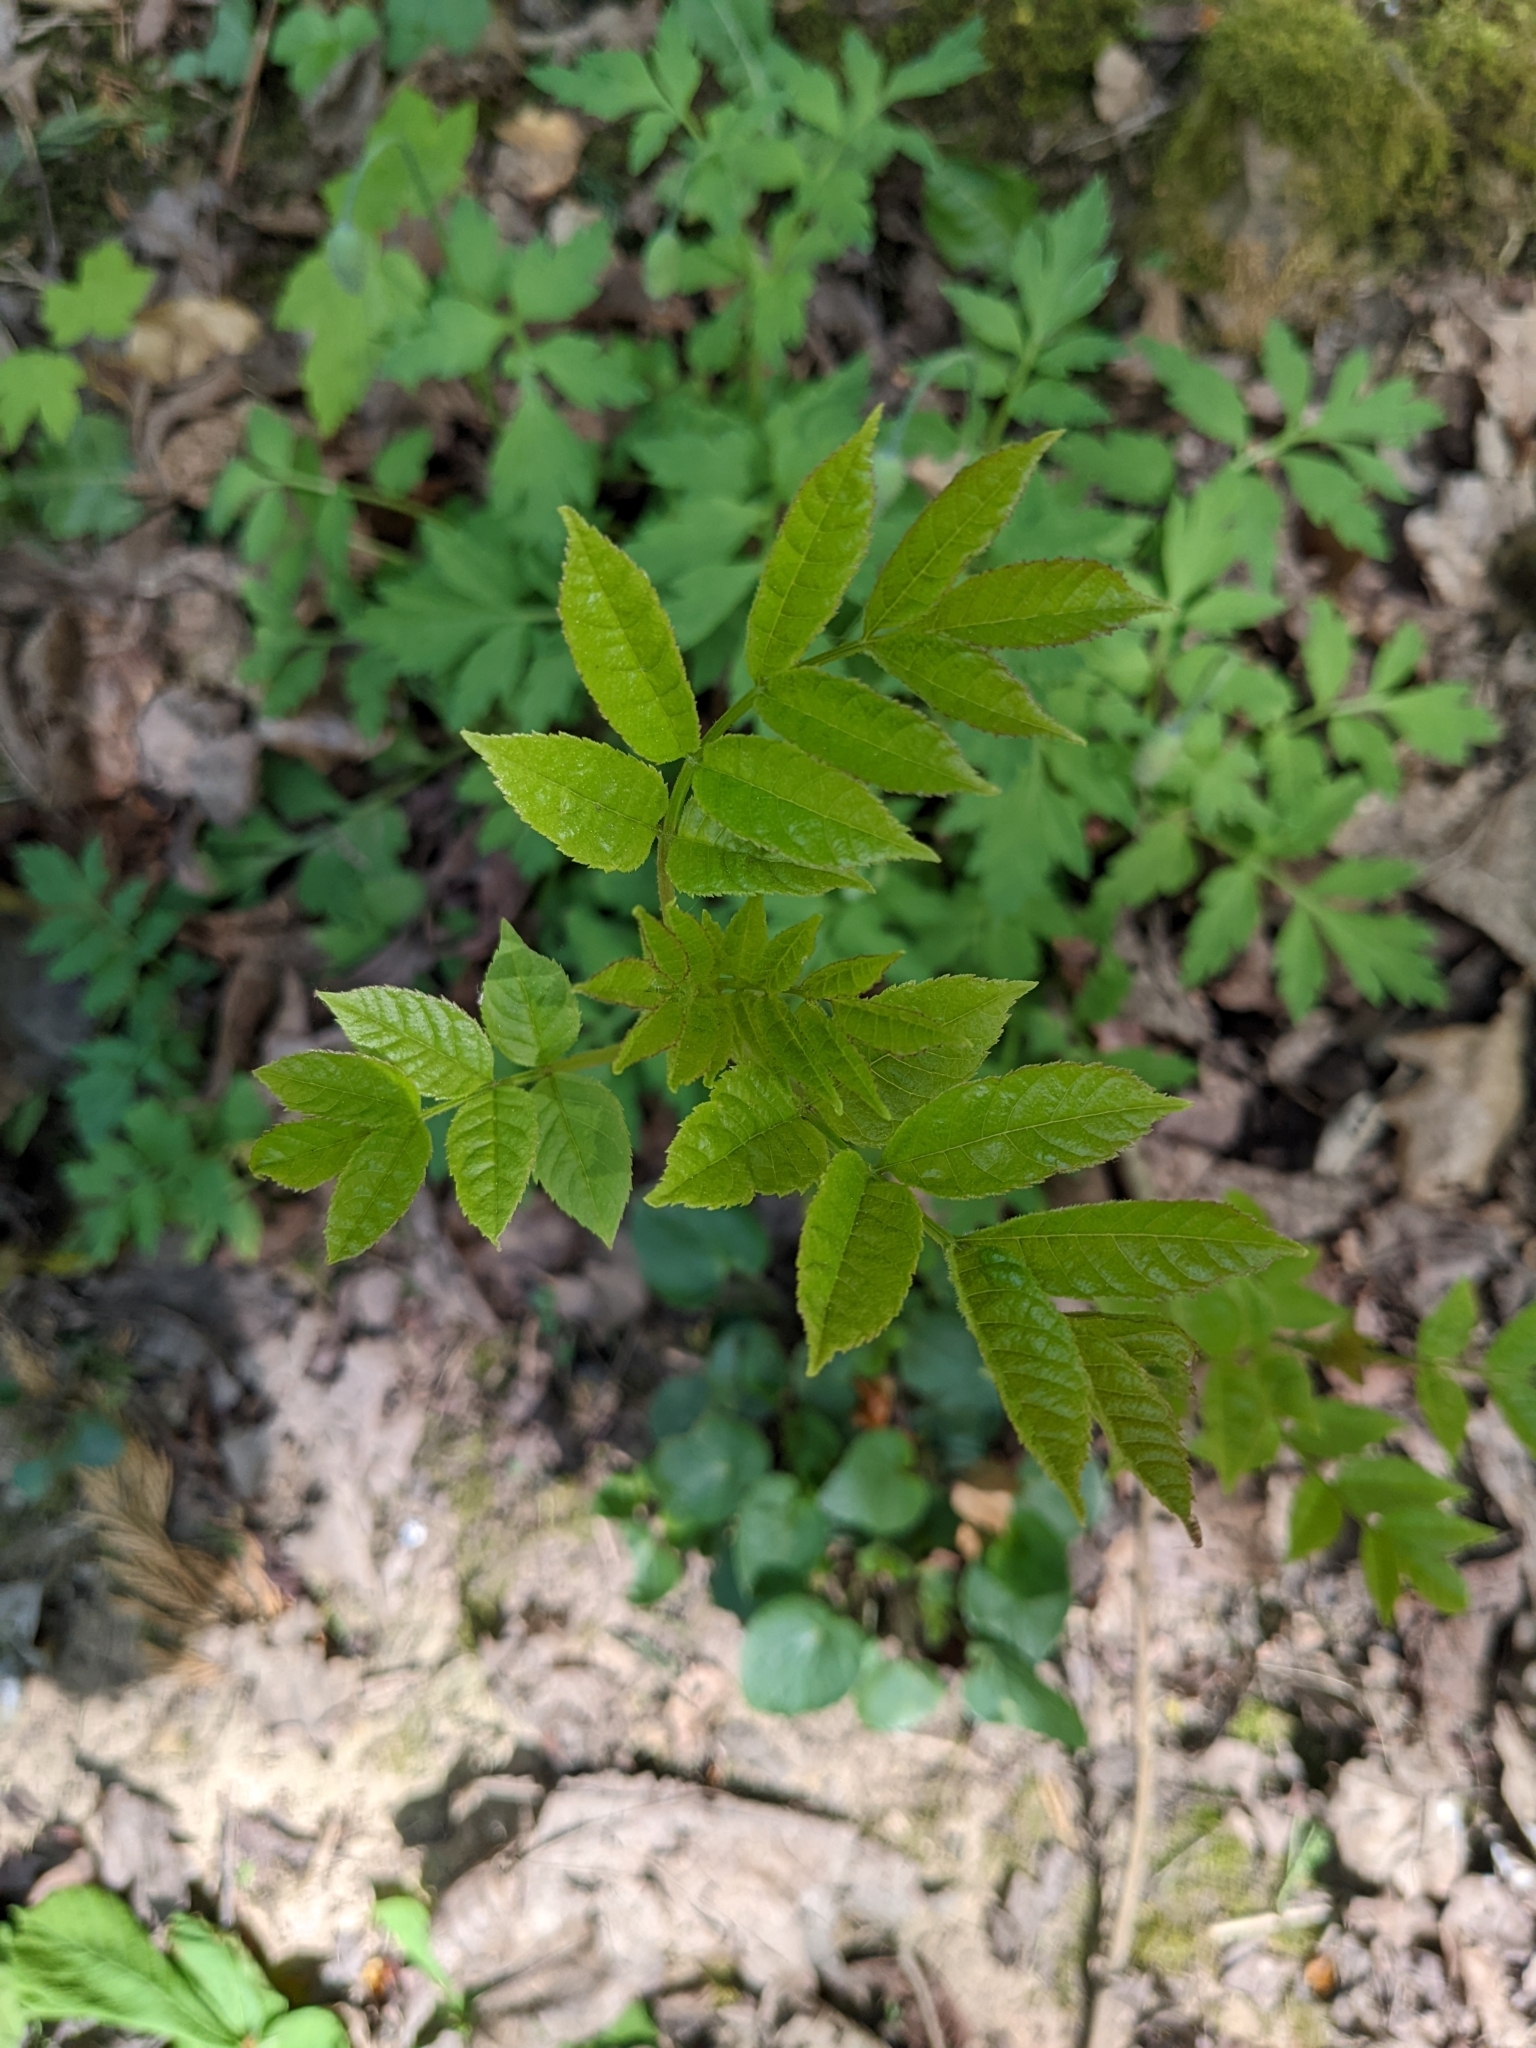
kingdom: Plantae
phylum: Tracheophyta
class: Magnoliopsida
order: Lamiales
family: Oleaceae
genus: Fraxinus
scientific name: Fraxinus excelsior
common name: European ash
